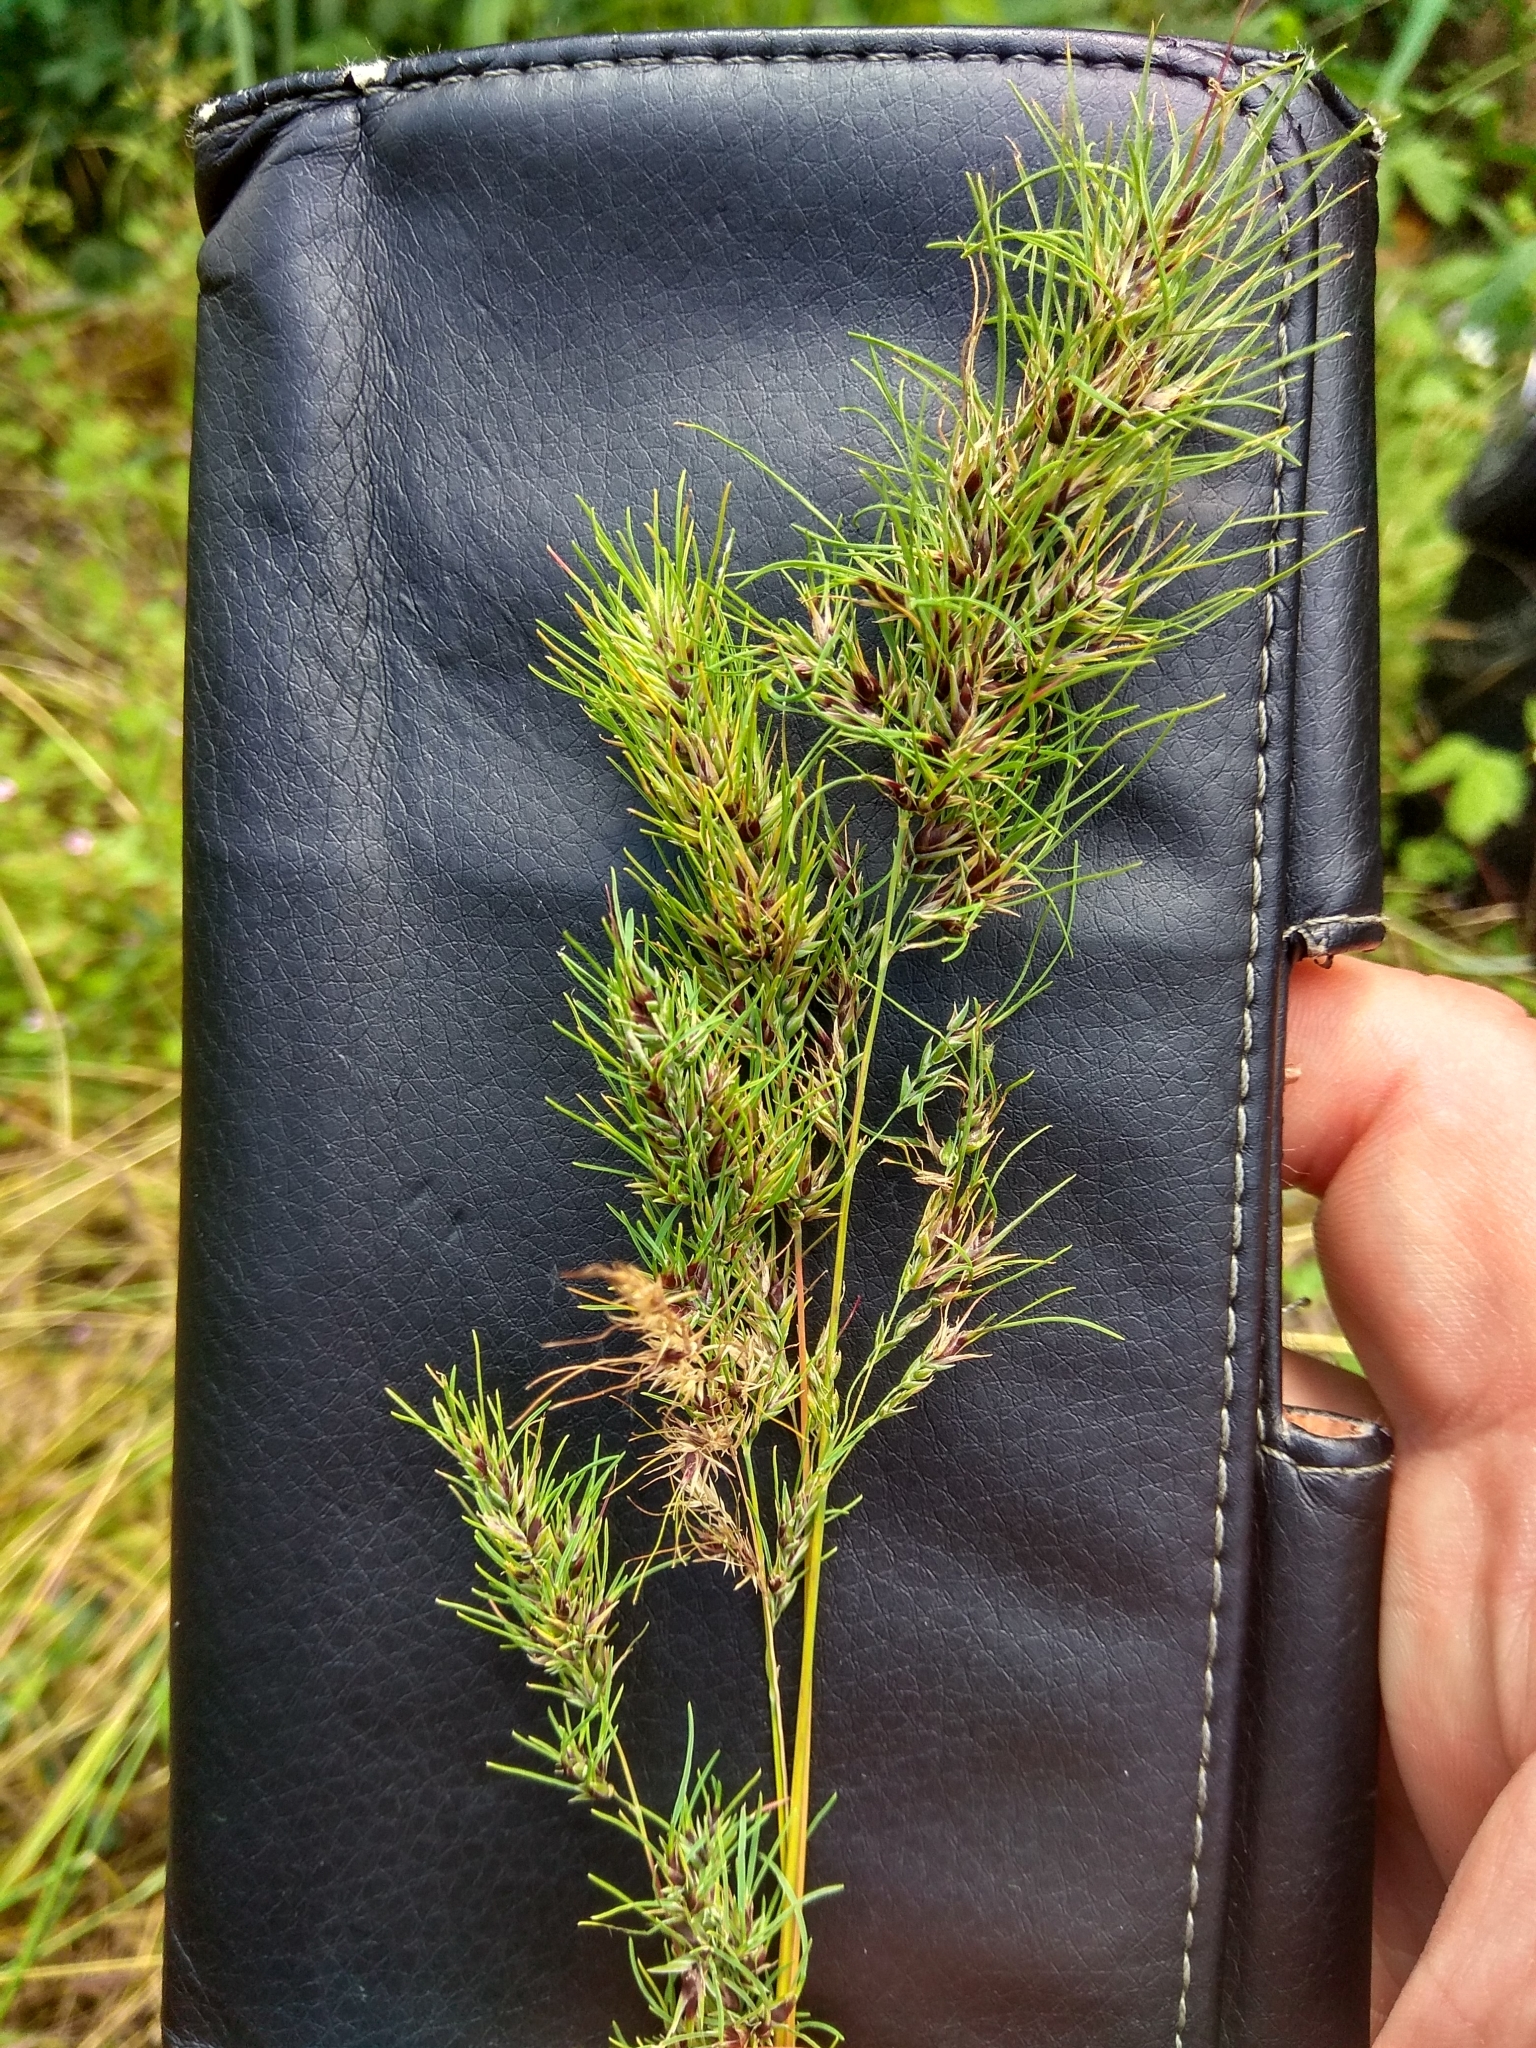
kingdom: Plantae
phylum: Tracheophyta
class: Liliopsida
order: Poales
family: Poaceae
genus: Poa
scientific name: Poa bulbosa
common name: Bulbous bluegrass
